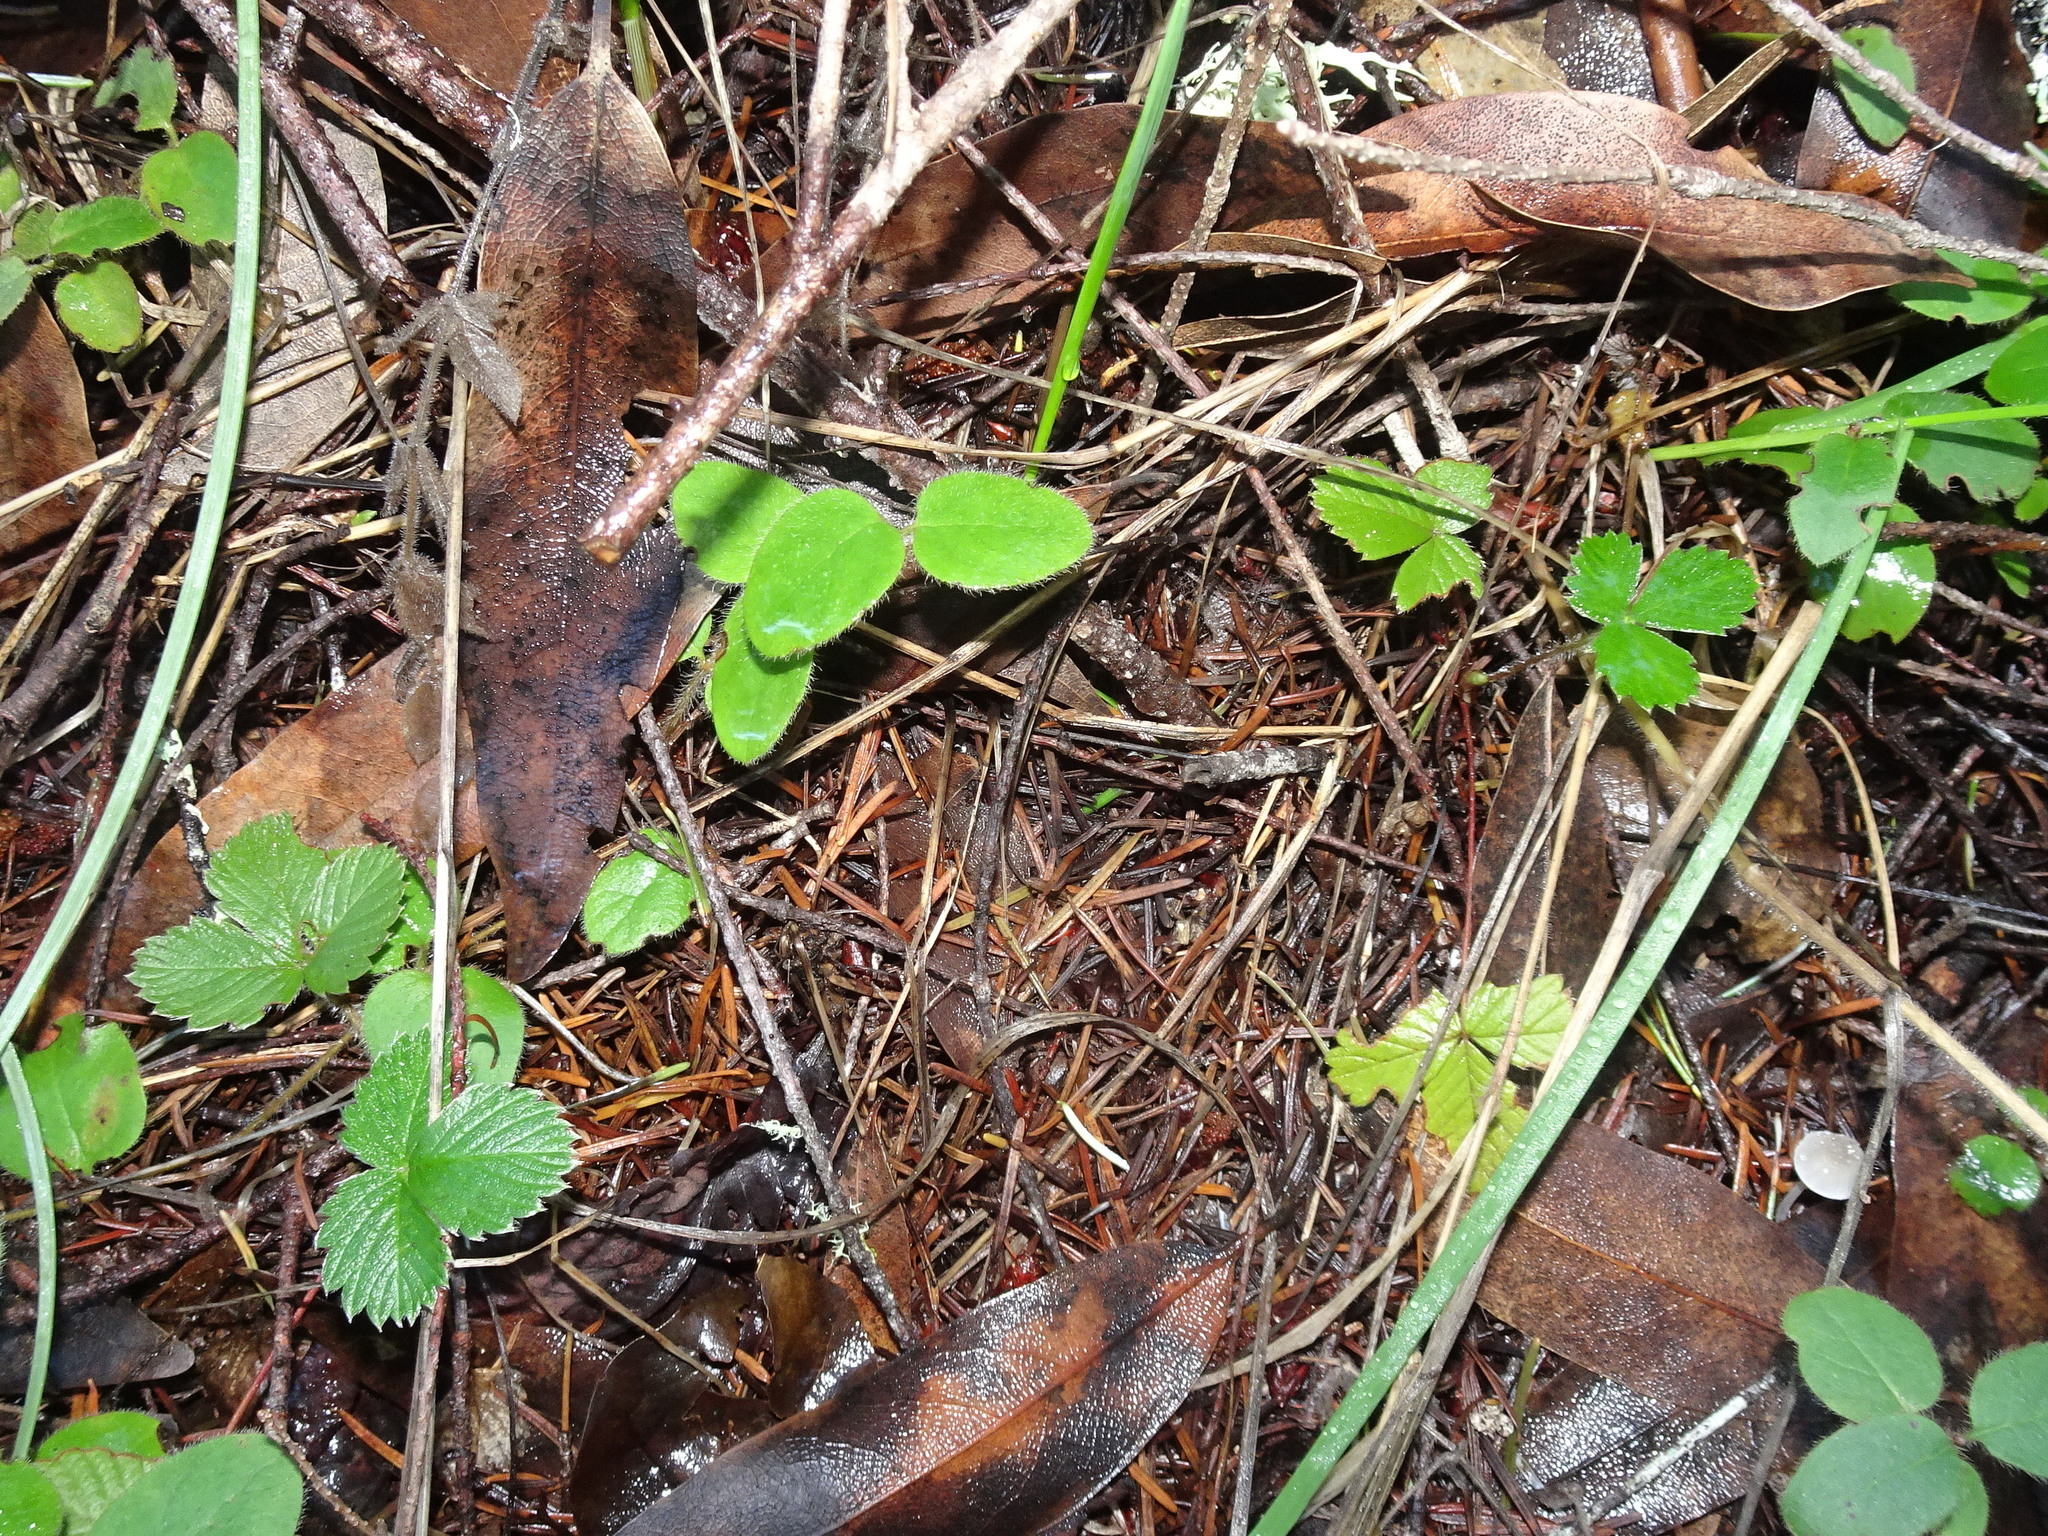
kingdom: Plantae
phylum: Tracheophyta
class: Magnoliopsida
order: Rosales
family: Rosaceae
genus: Fragaria
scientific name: Fragaria vesca
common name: Wild strawberry
